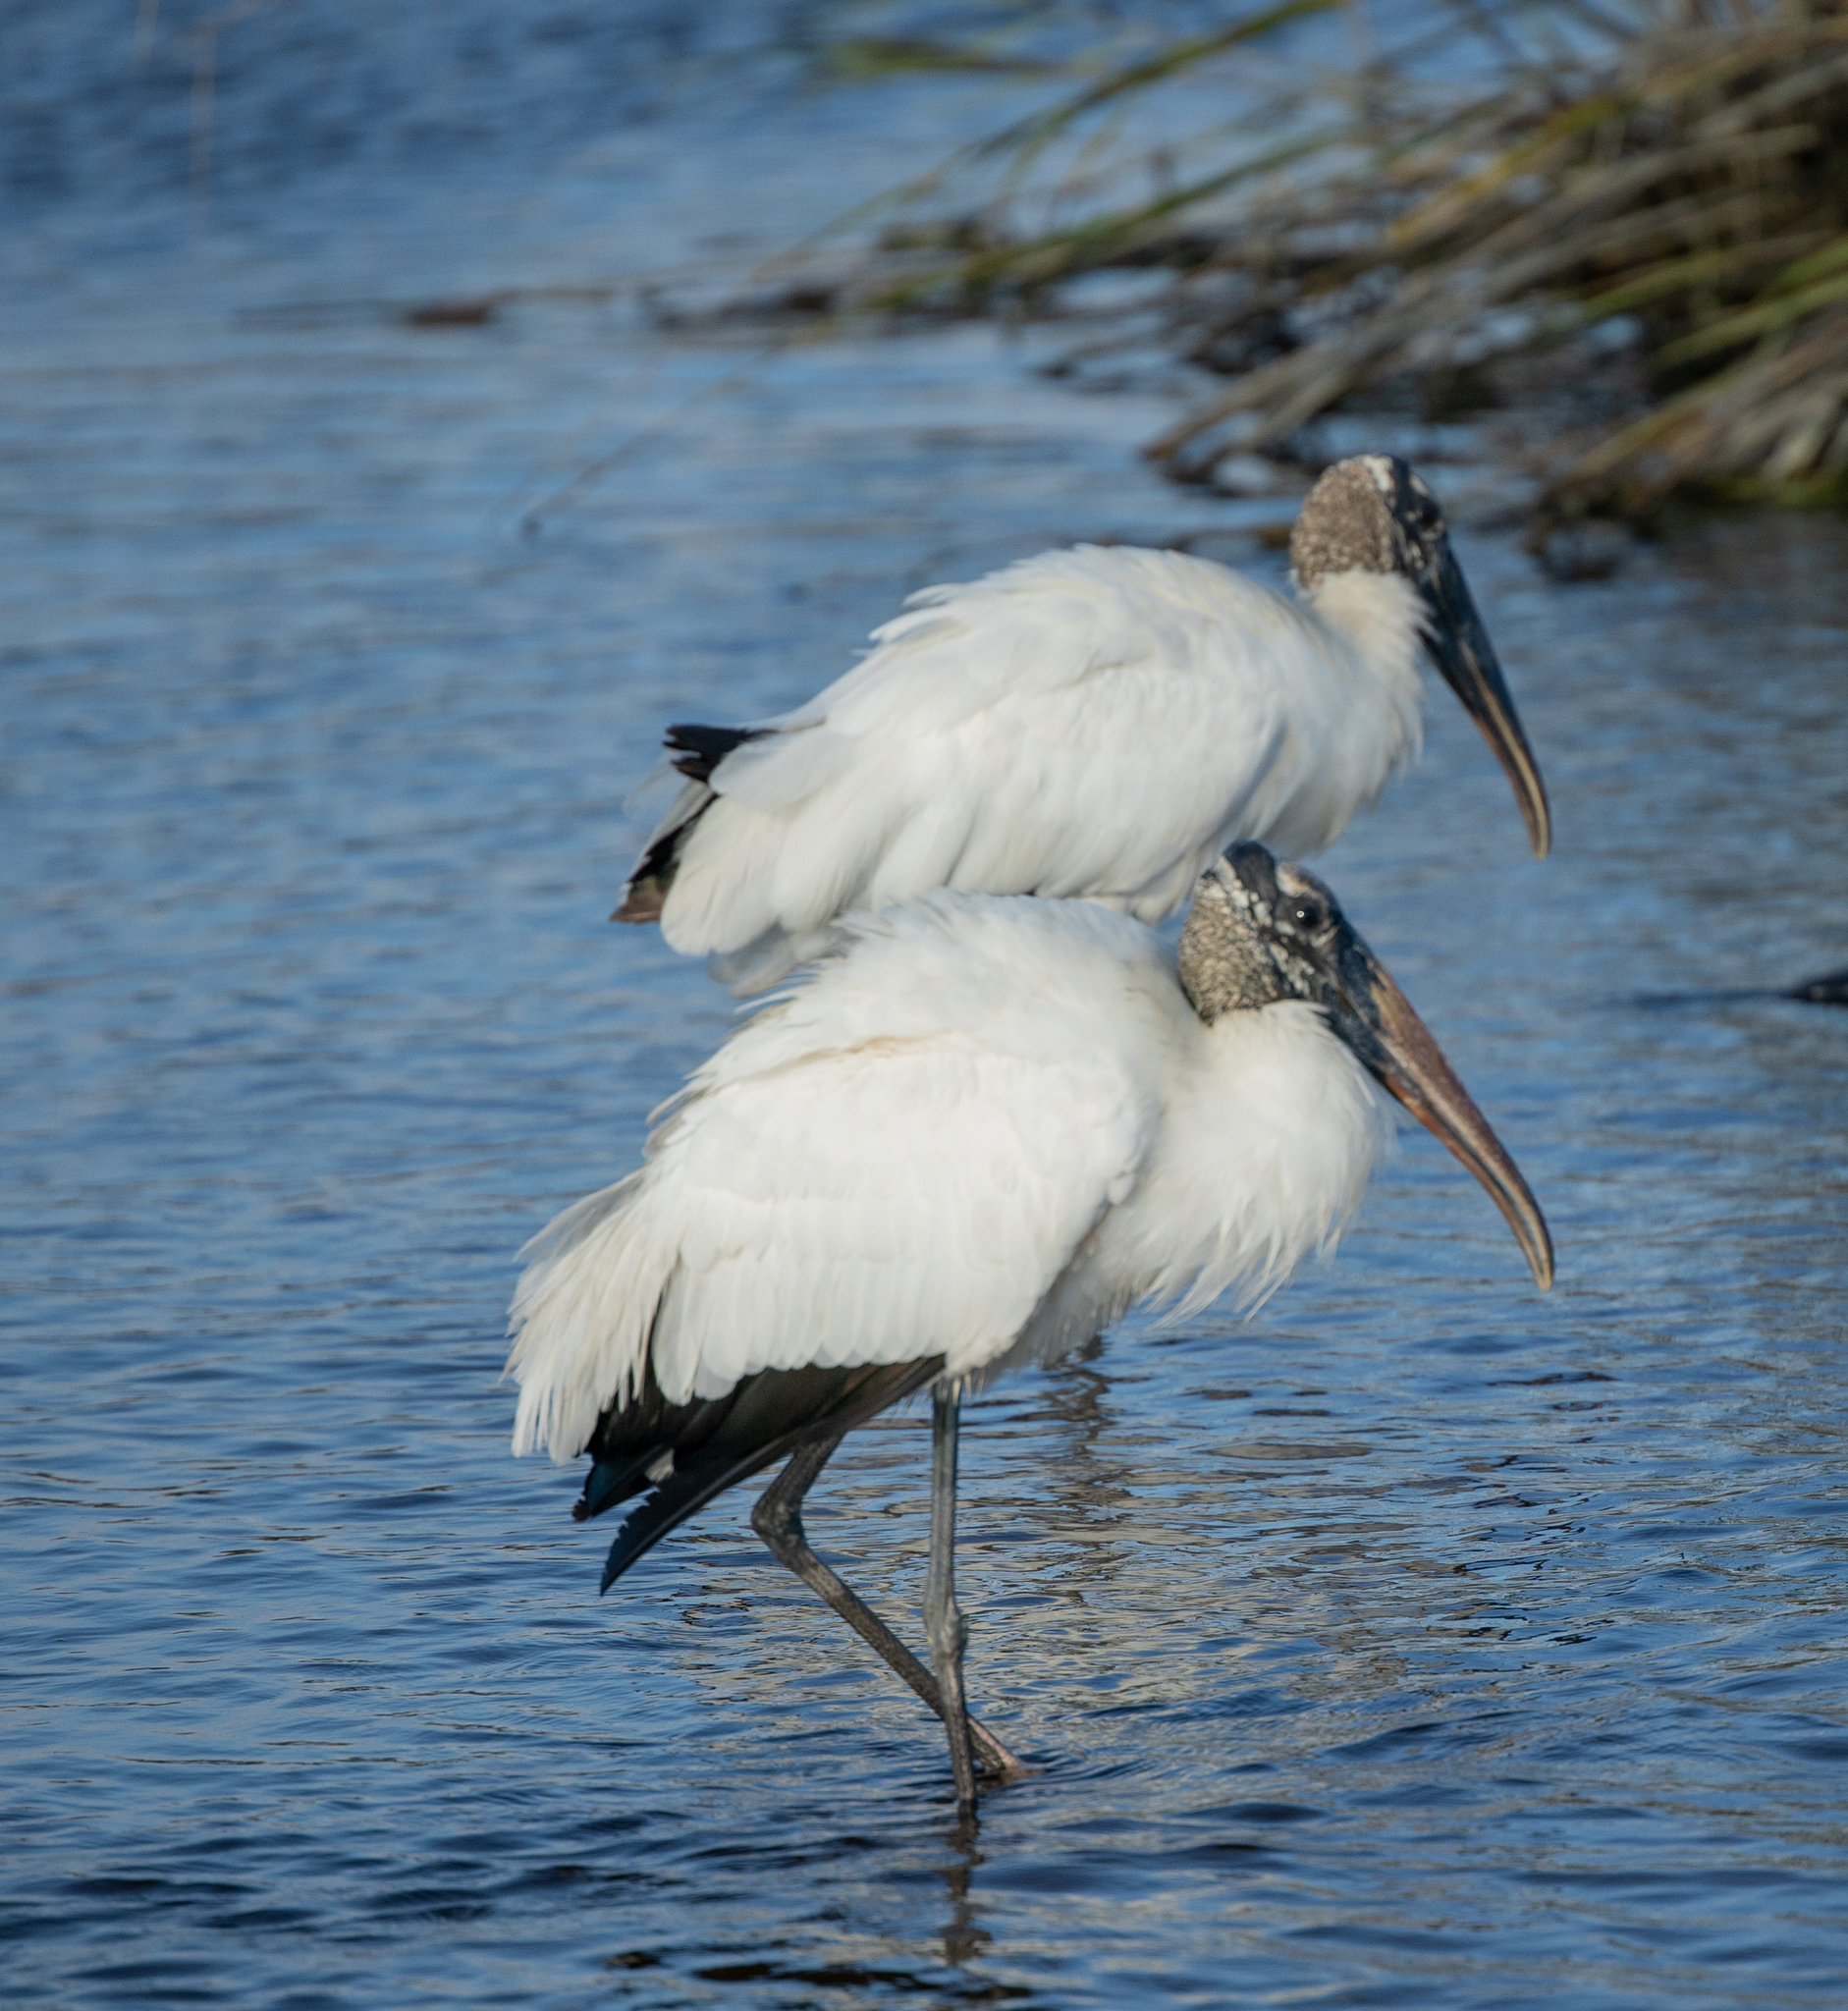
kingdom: Animalia
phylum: Chordata
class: Aves
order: Ciconiiformes
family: Ciconiidae
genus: Mycteria
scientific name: Mycteria americana
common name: Wood stork
